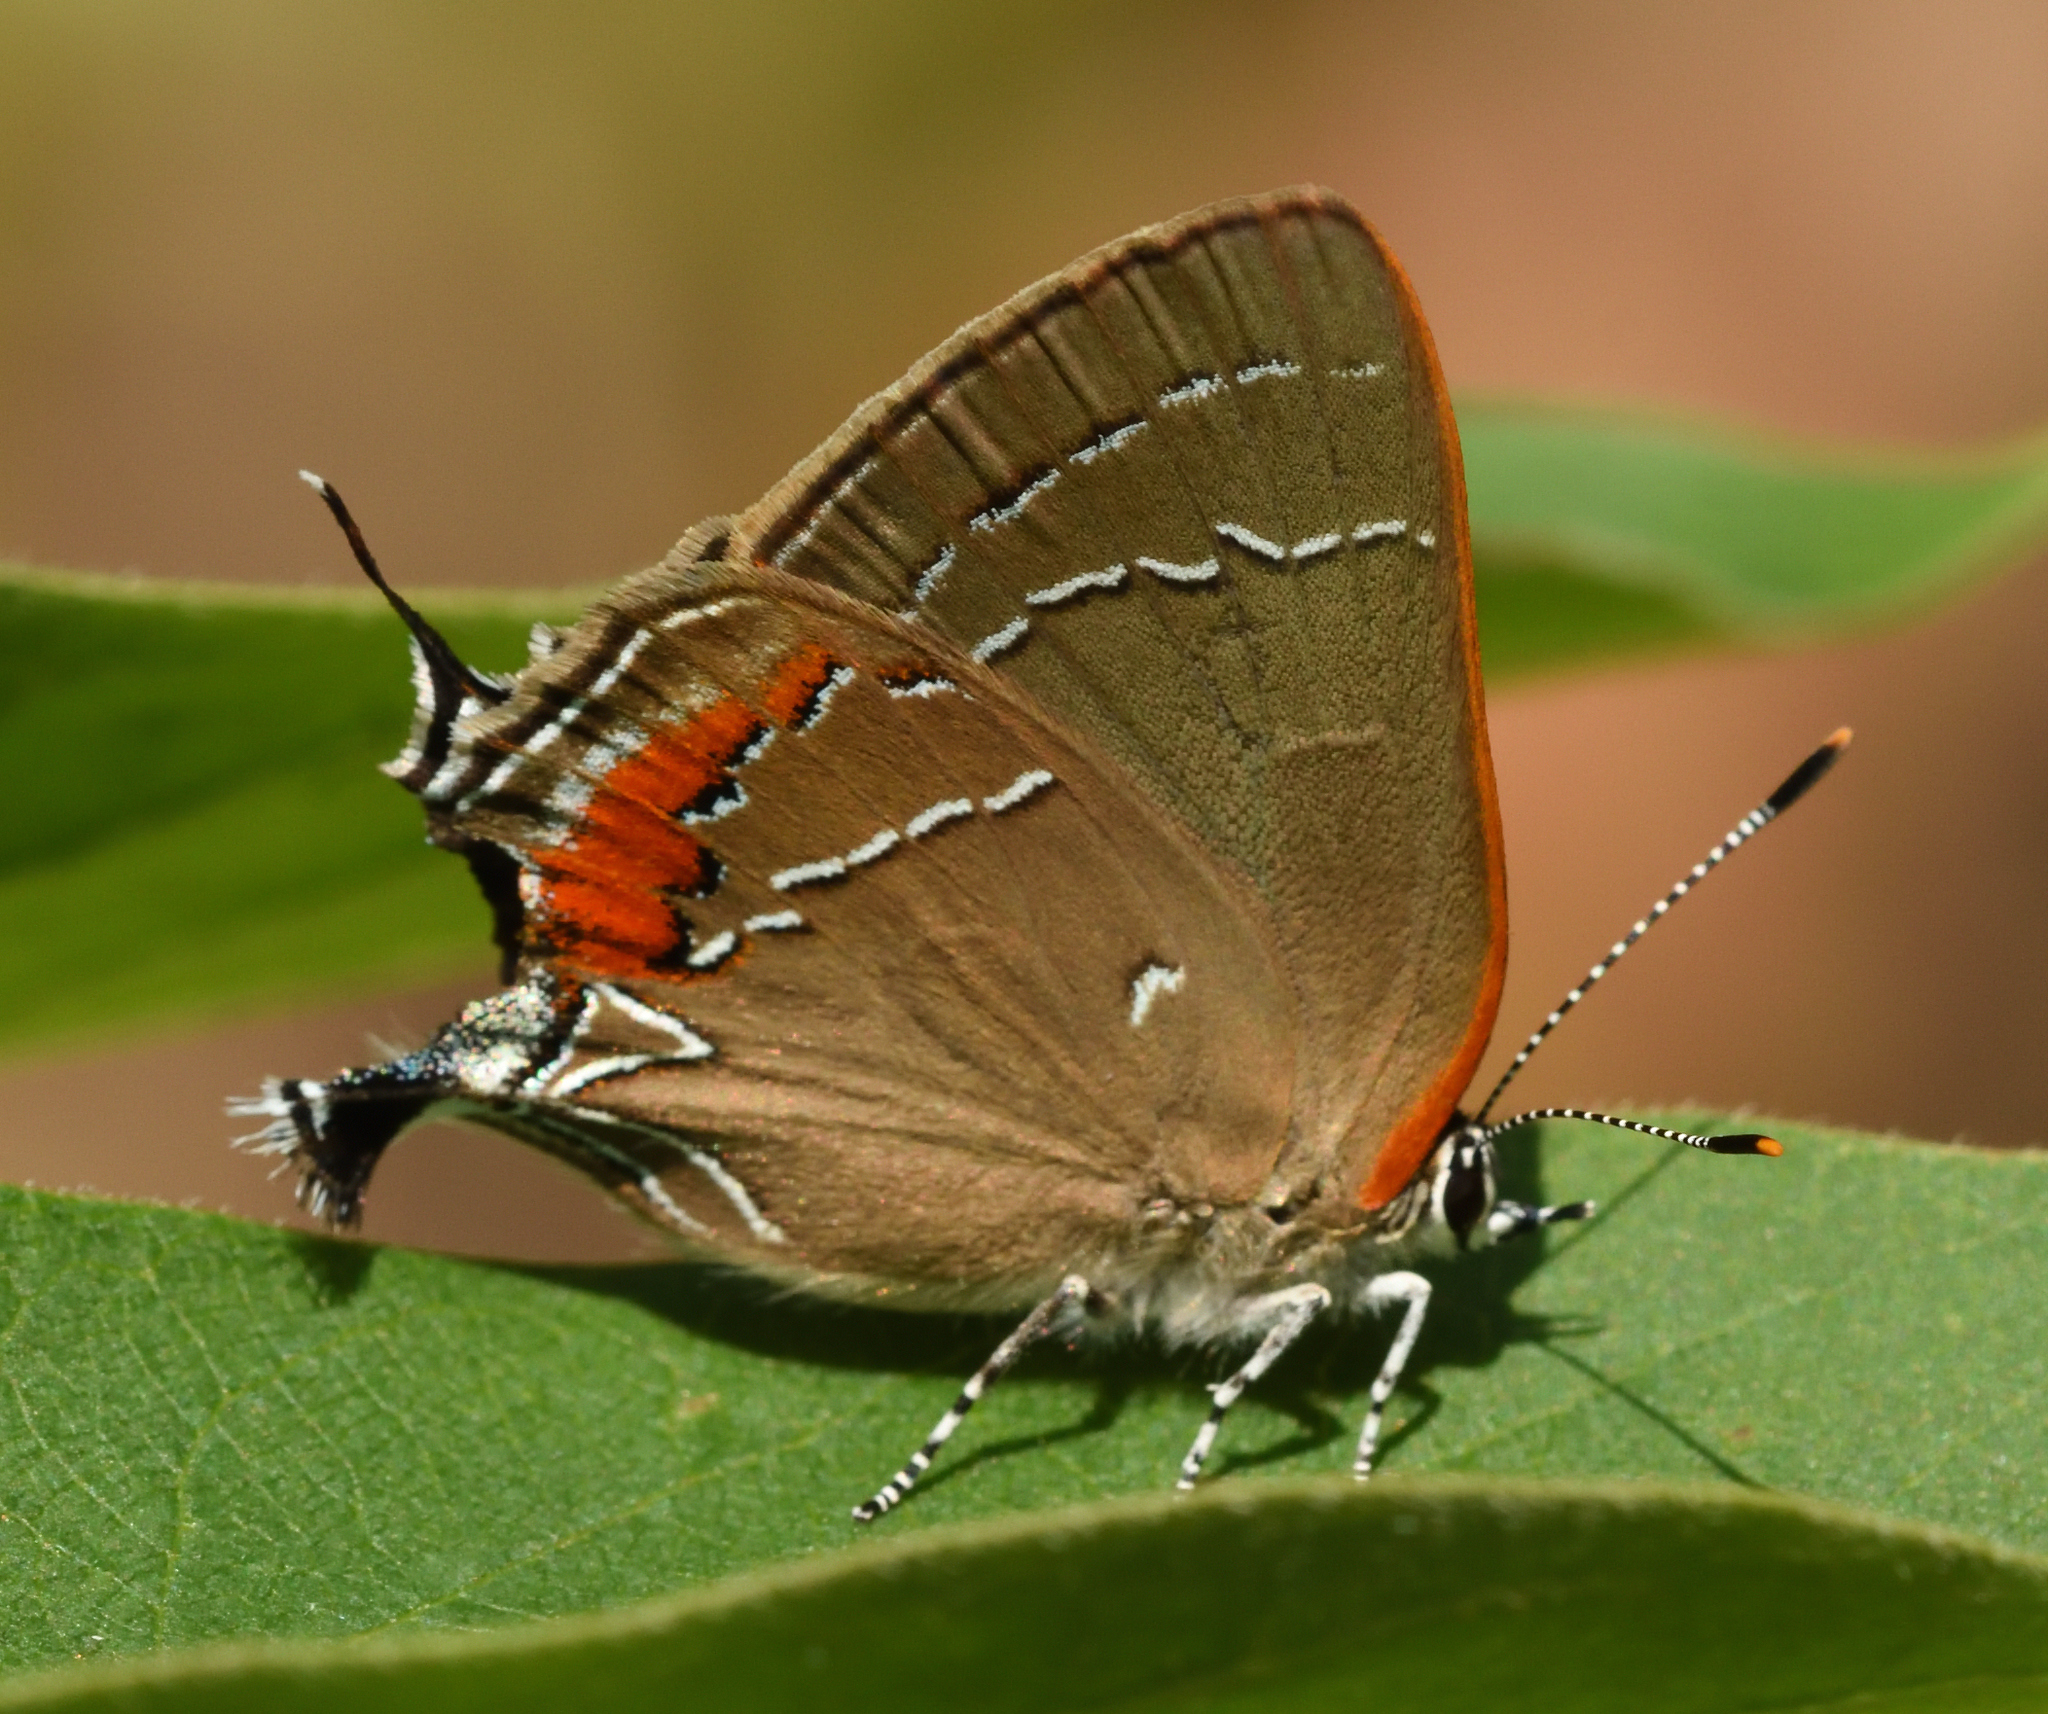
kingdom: Animalia
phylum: Arthropoda
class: Insecta
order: Lepidoptera
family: Lycaenidae
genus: Fixsenia
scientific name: Fixsenia favonius
